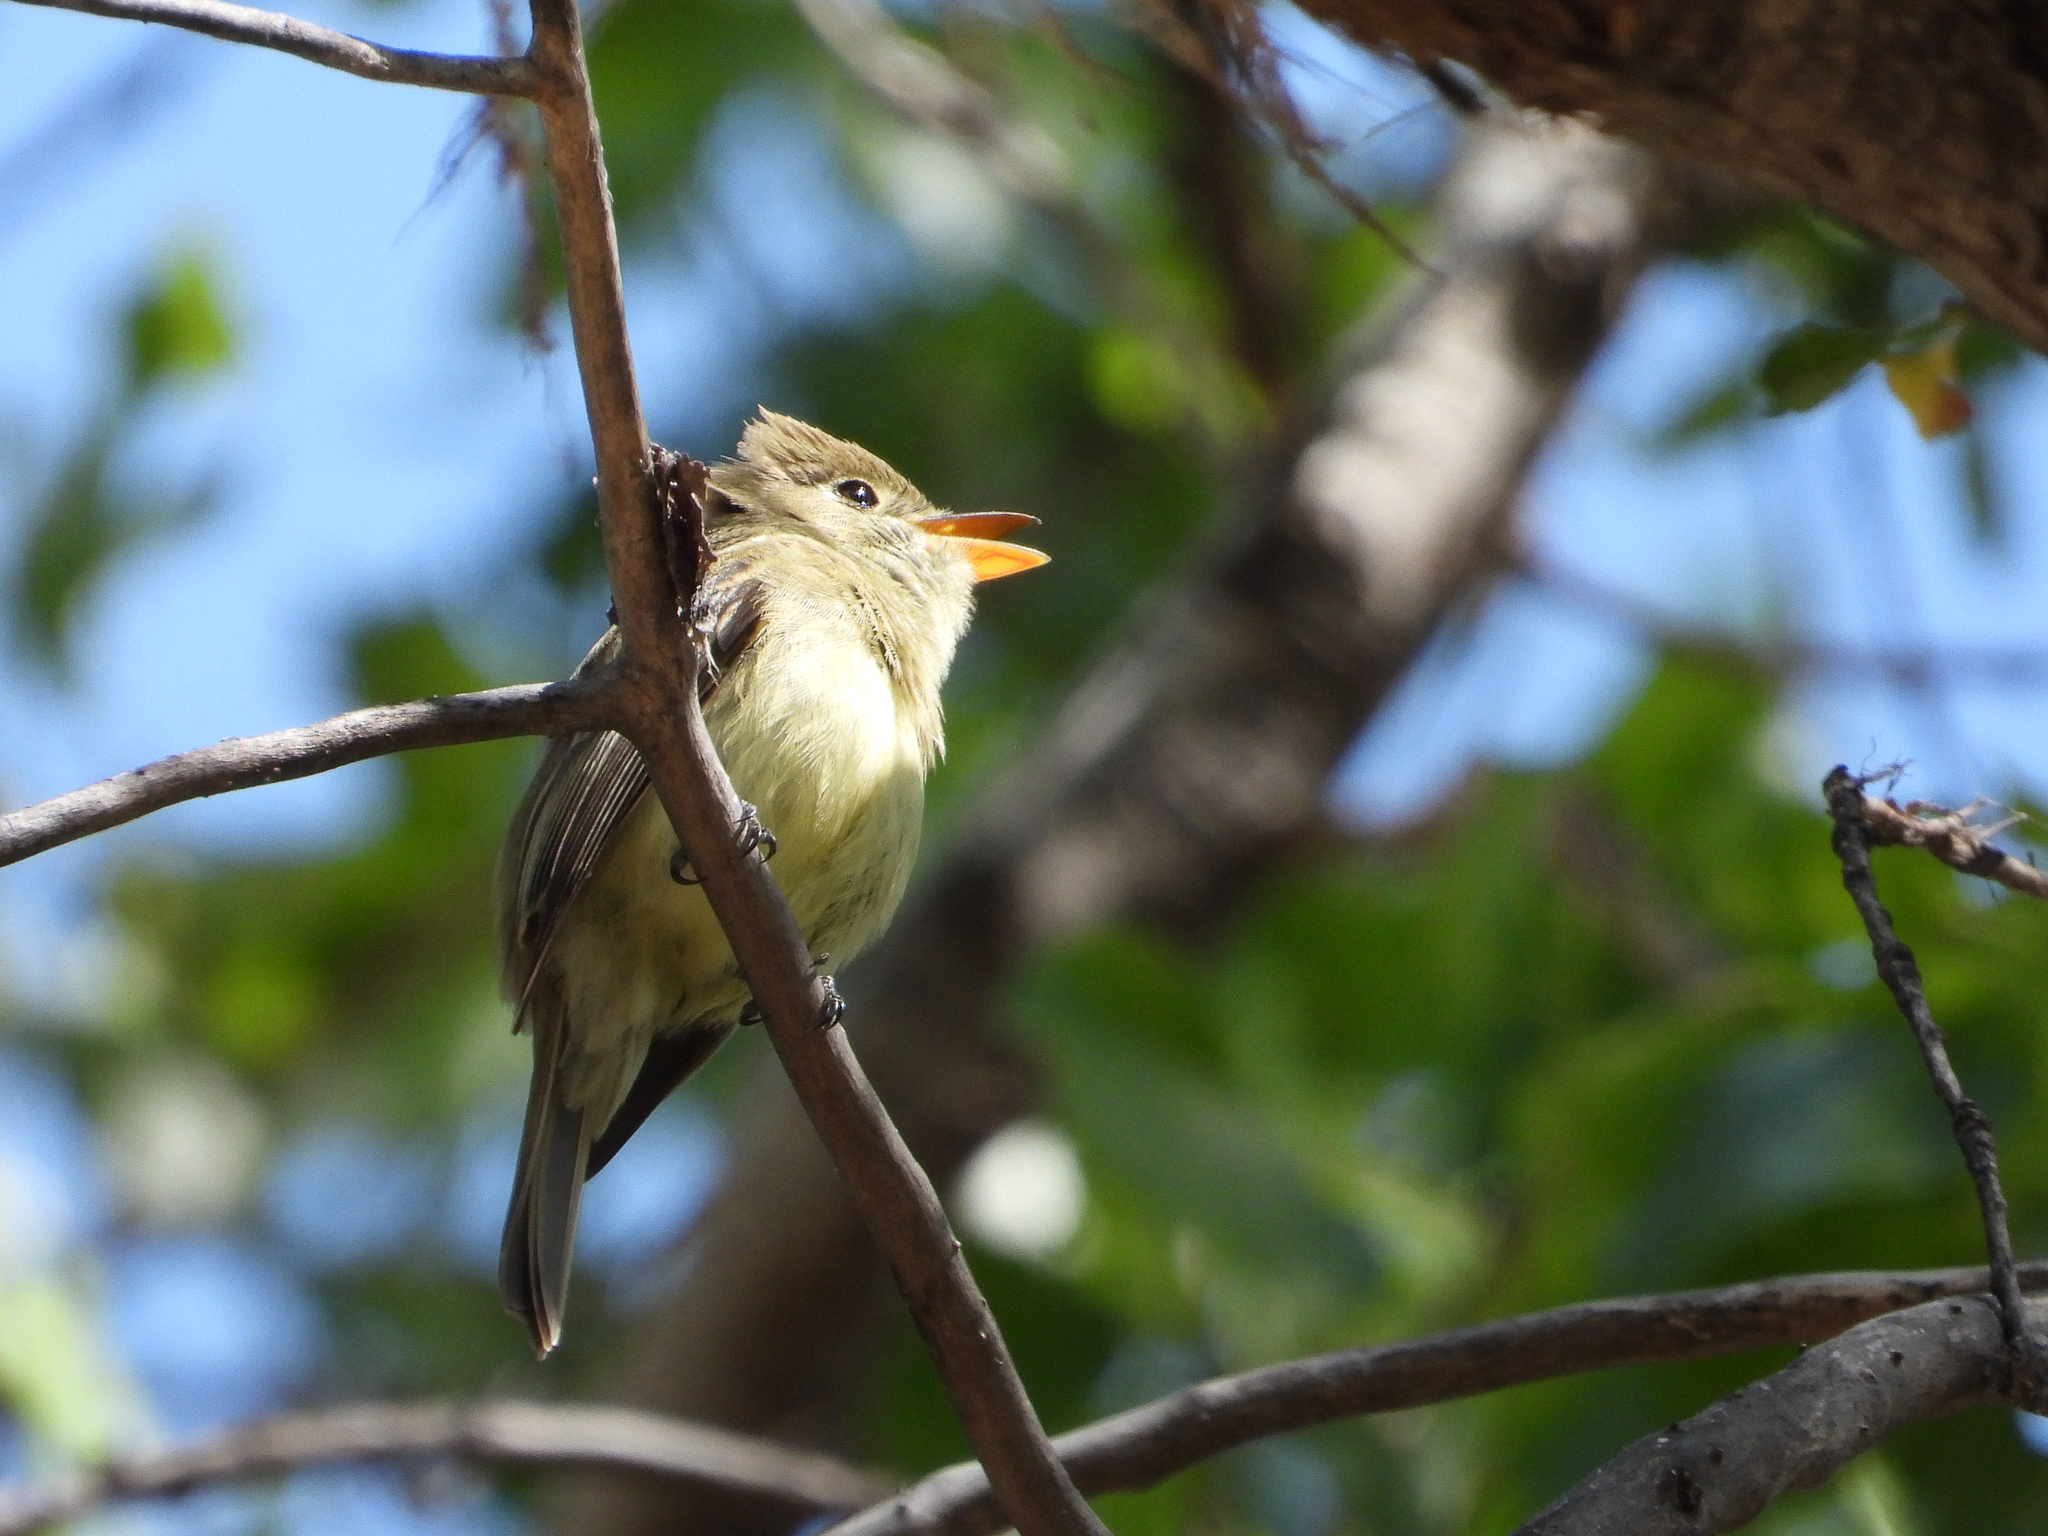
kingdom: Animalia
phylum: Chordata
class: Aves
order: Passeriformes
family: Tyrannidae
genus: Empidonax
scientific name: Empidonax difficilis
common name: Pacific-slope flycatcher
